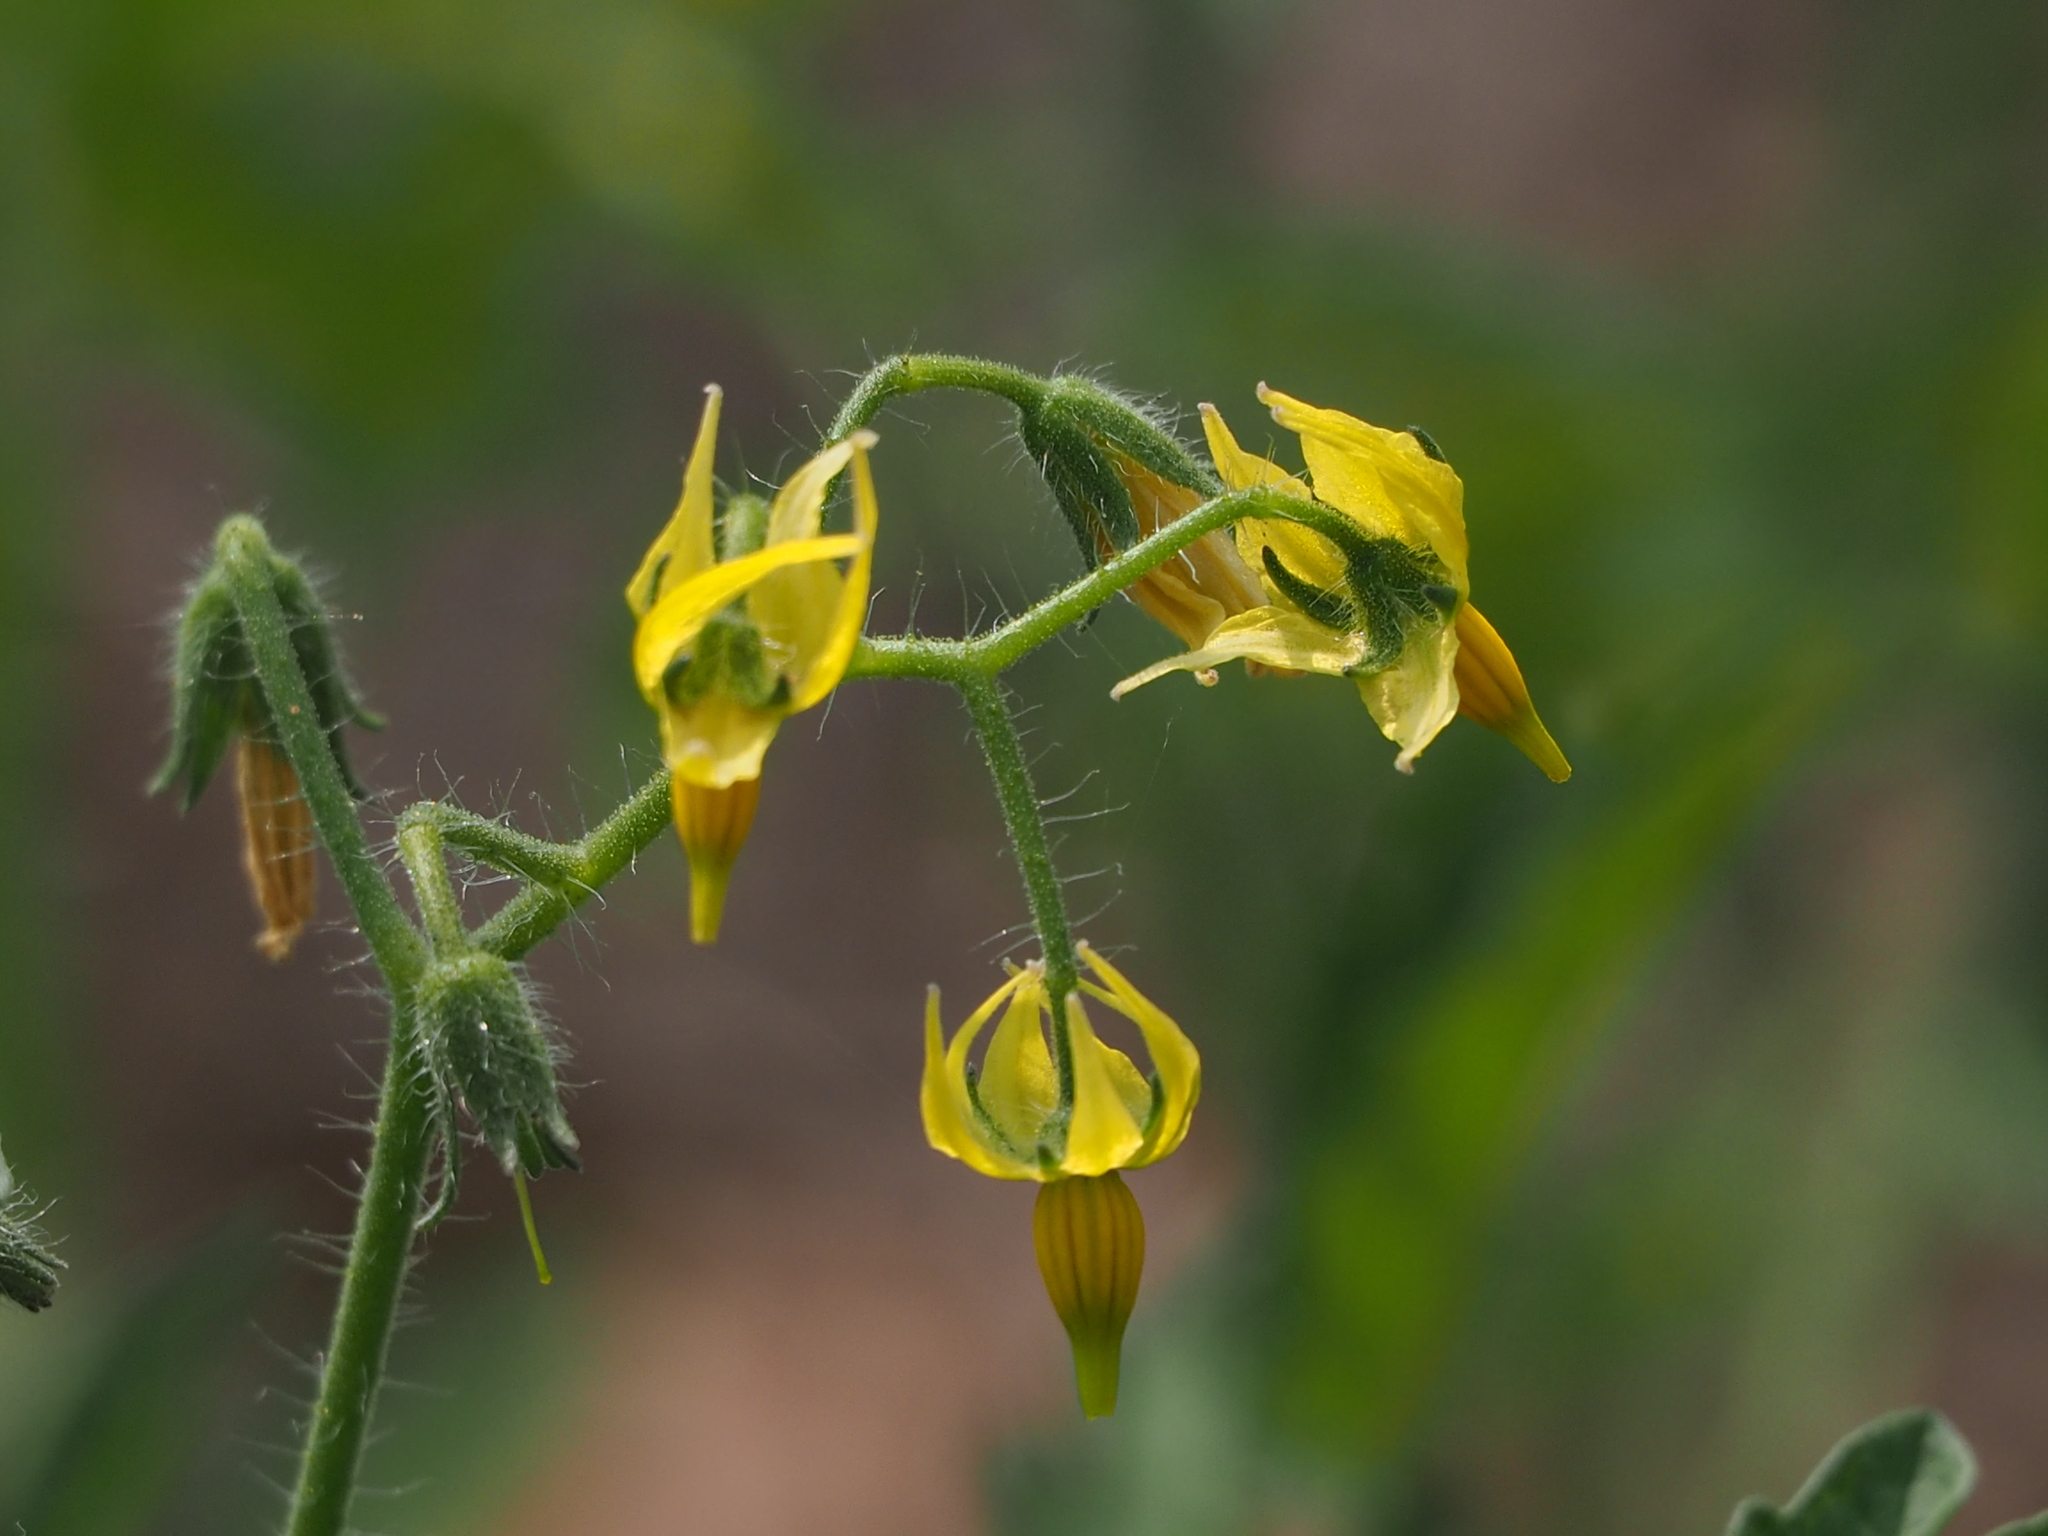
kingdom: Plantae
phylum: Tracheophyta
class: Magnoliopsida
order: Solanales
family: Solanaceae
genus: Solanum
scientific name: Solanum lycopersicum
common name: Garden tomato
